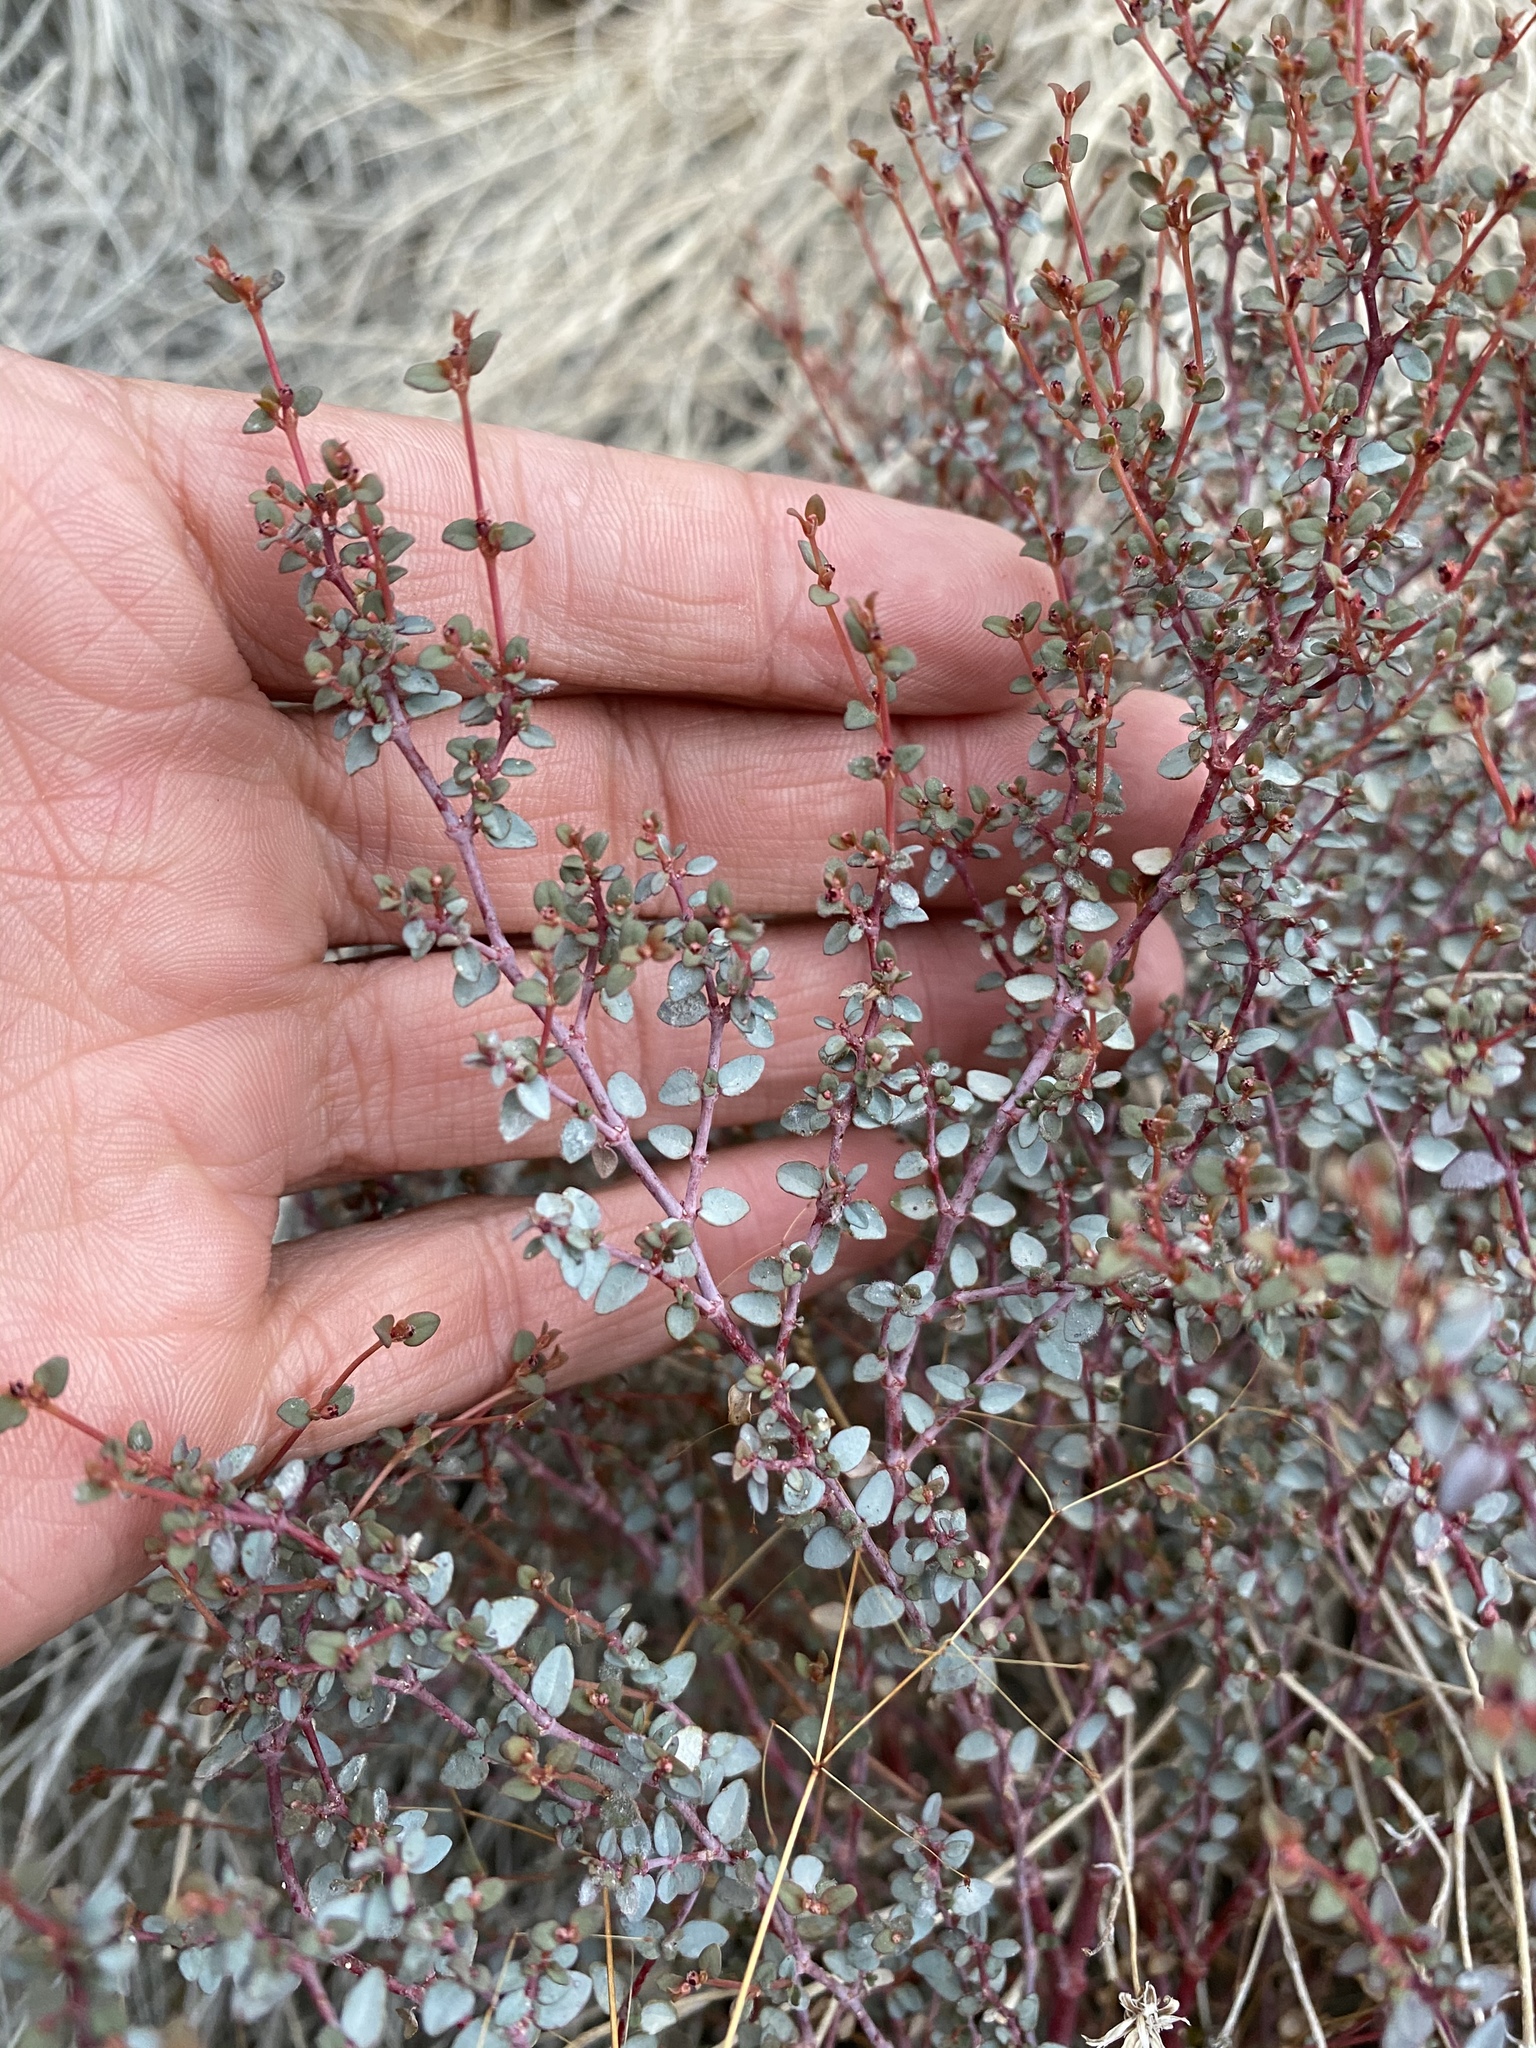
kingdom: Plantae
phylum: Tracheophyta
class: Magnoliopsida
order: Malpighiales
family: Euphorbiaceae
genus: Euphorbia
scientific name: Euphorbia parishii
